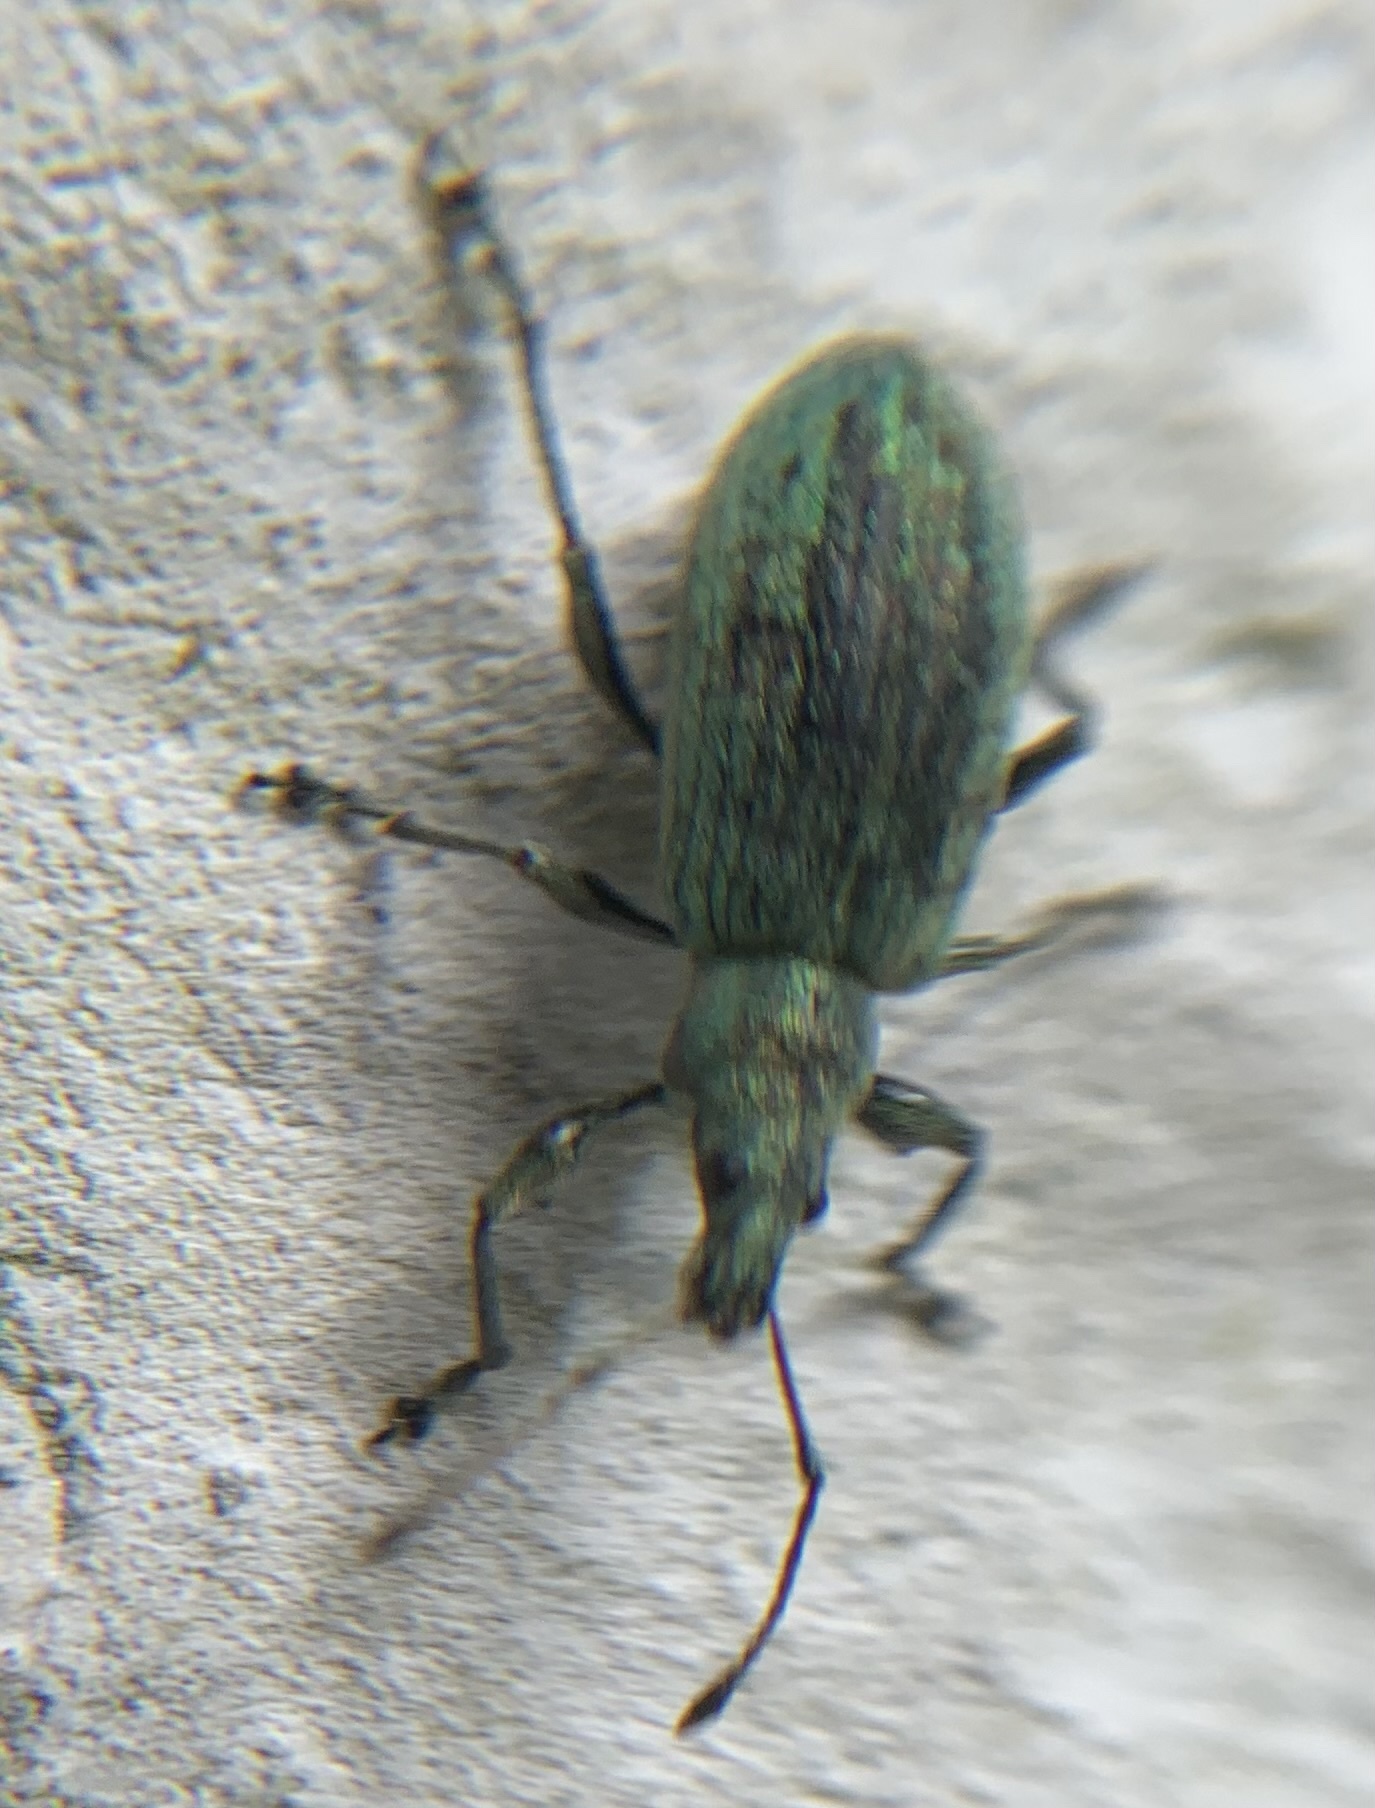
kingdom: Animalia
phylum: Arthropoda
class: Insecta
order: Coleoptera
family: Curculionidae
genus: Phyllobius
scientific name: Phyllobius glaucus
